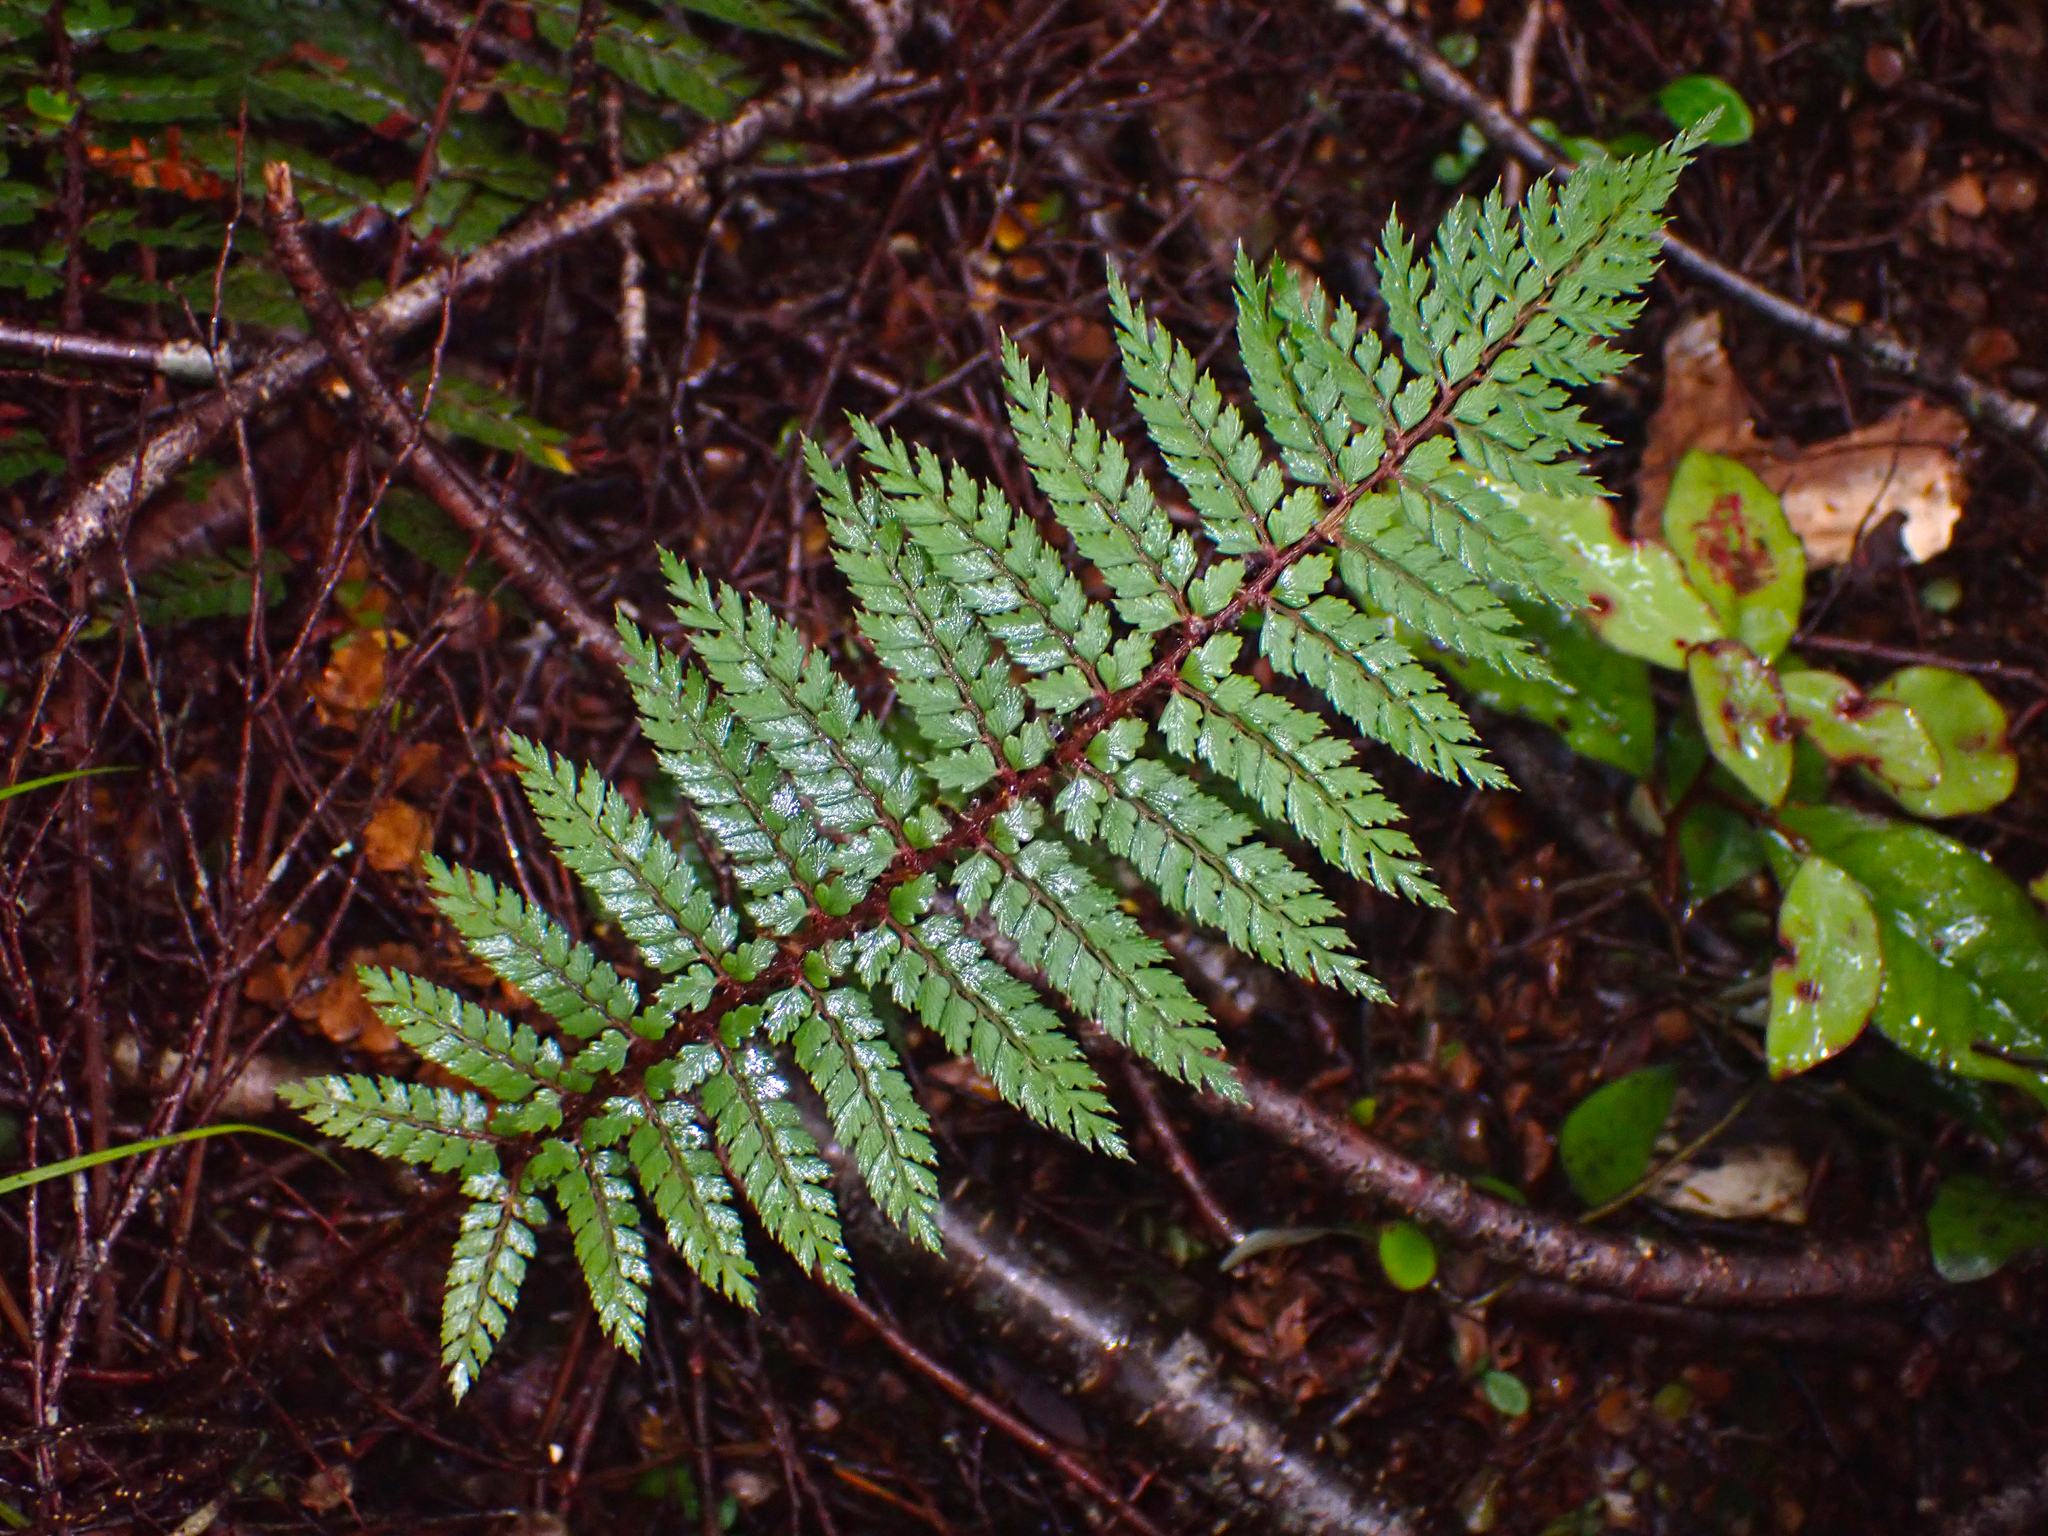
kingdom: Plantae
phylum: Tracheophyta
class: Polypodiopsida
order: Polypodiales
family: Dryopteridaceae
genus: Polystichum
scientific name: Polystichum vestitum
